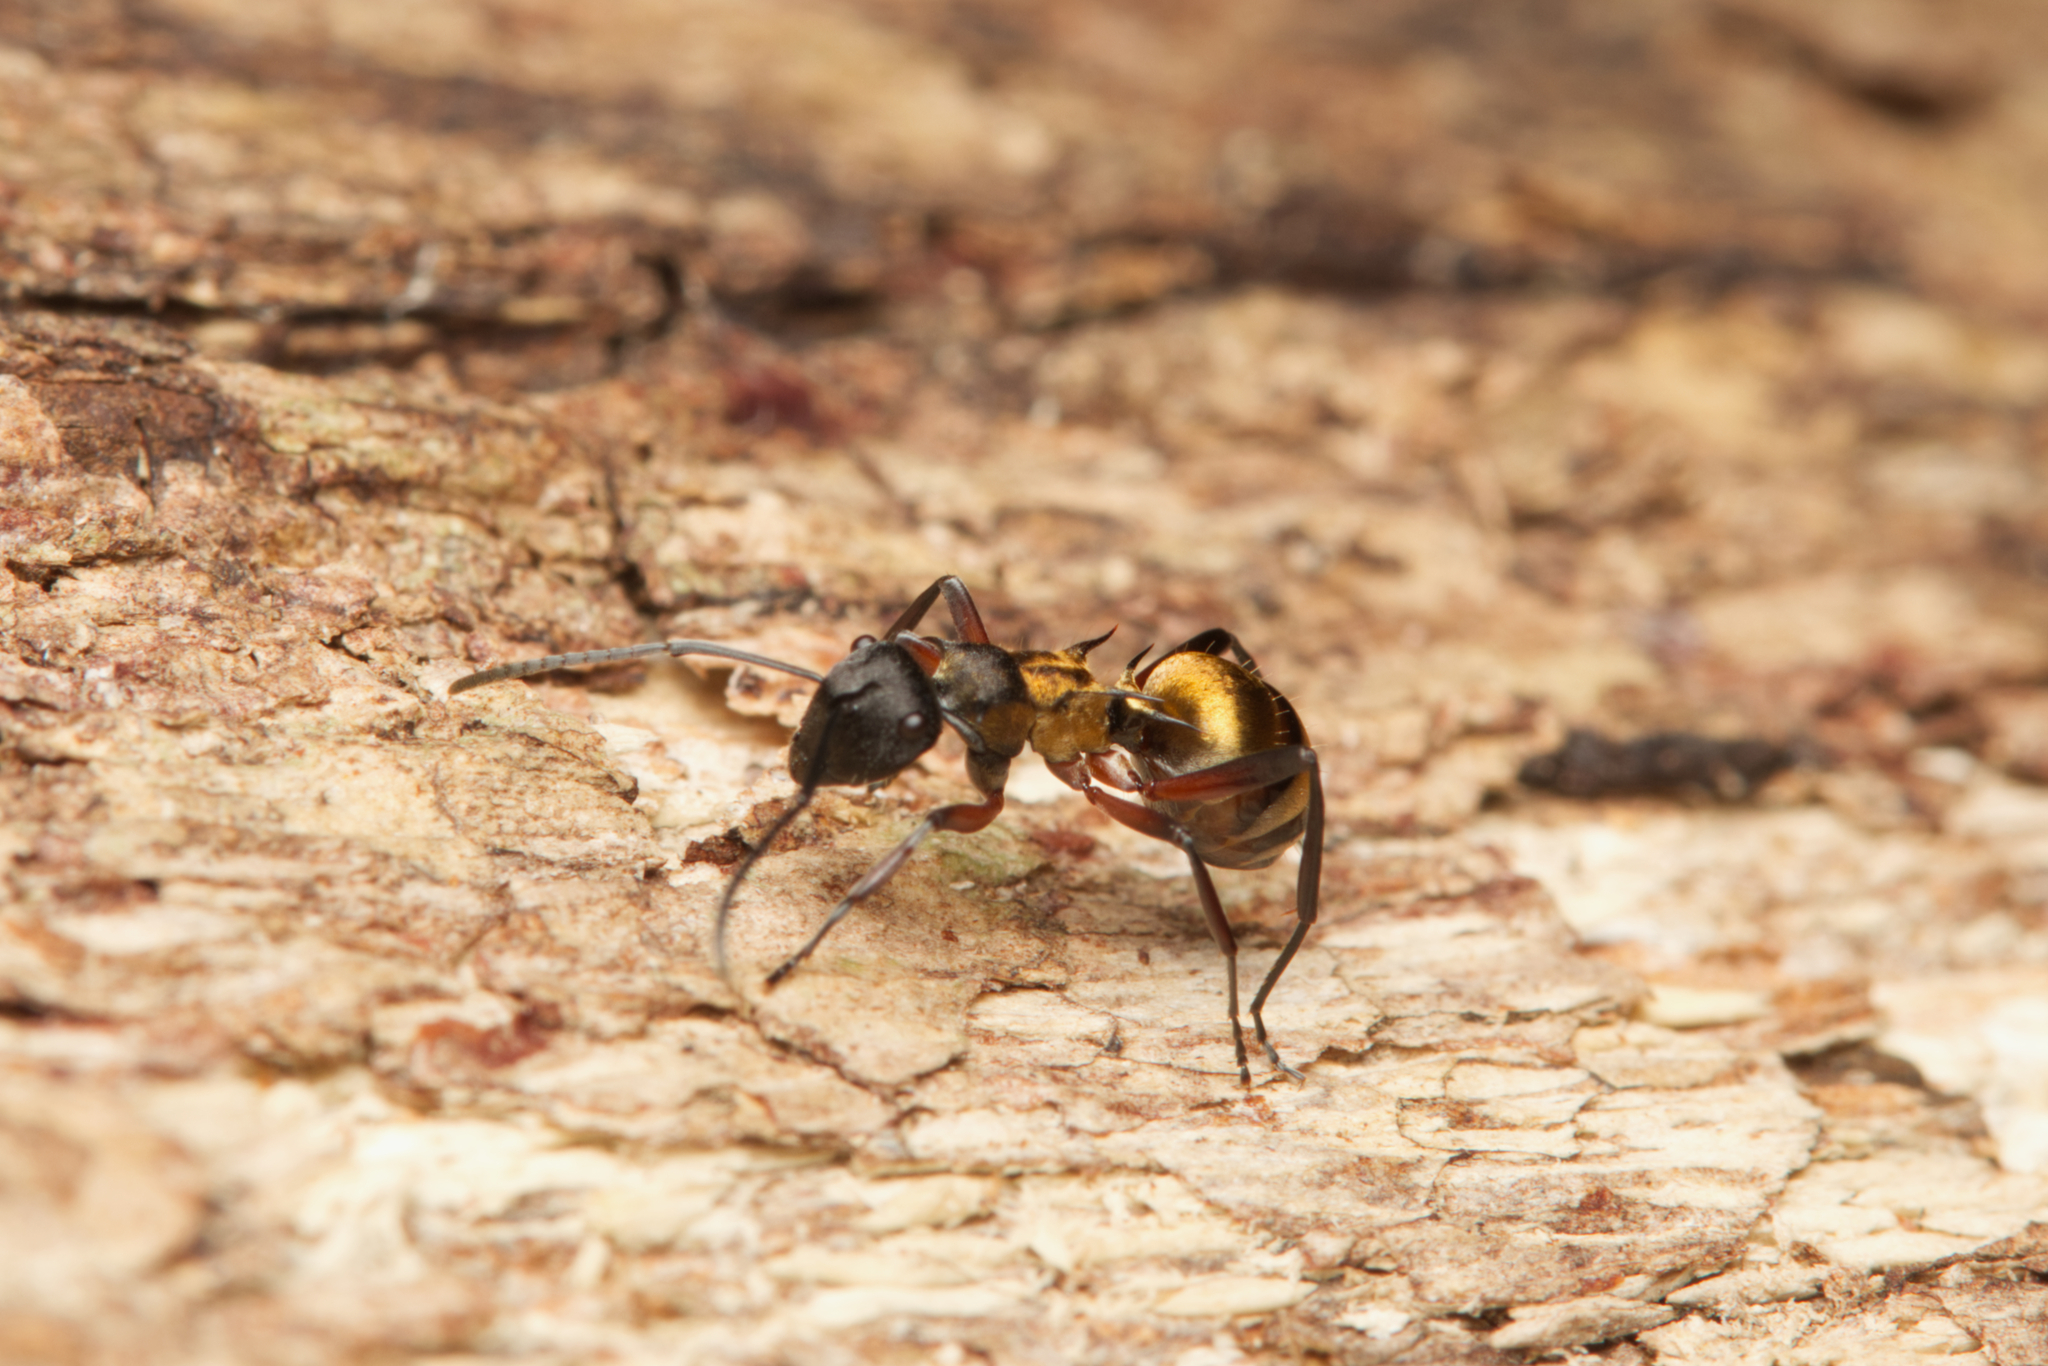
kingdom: Animalia
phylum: Arthropoda
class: Insecta
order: Hymenoptera
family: Formicidae
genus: Polyrhachis
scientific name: Polyrhachis rufifemur
